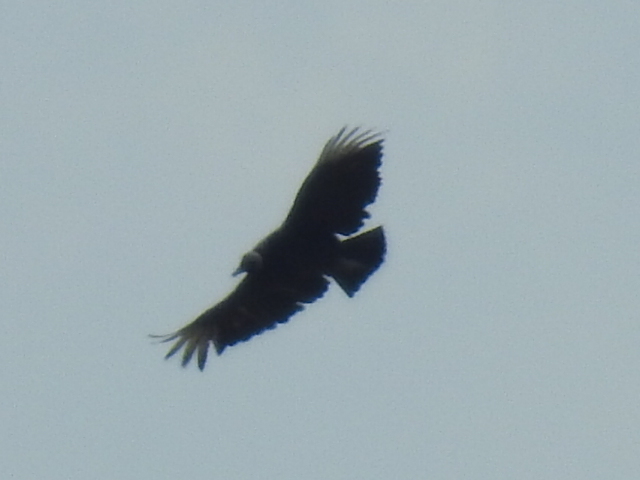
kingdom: Animalia
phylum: Chordata
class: Aves
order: Accipitriformes
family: Cathartidae
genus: Coragyps
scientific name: Coragyps atratus
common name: Black vulture
